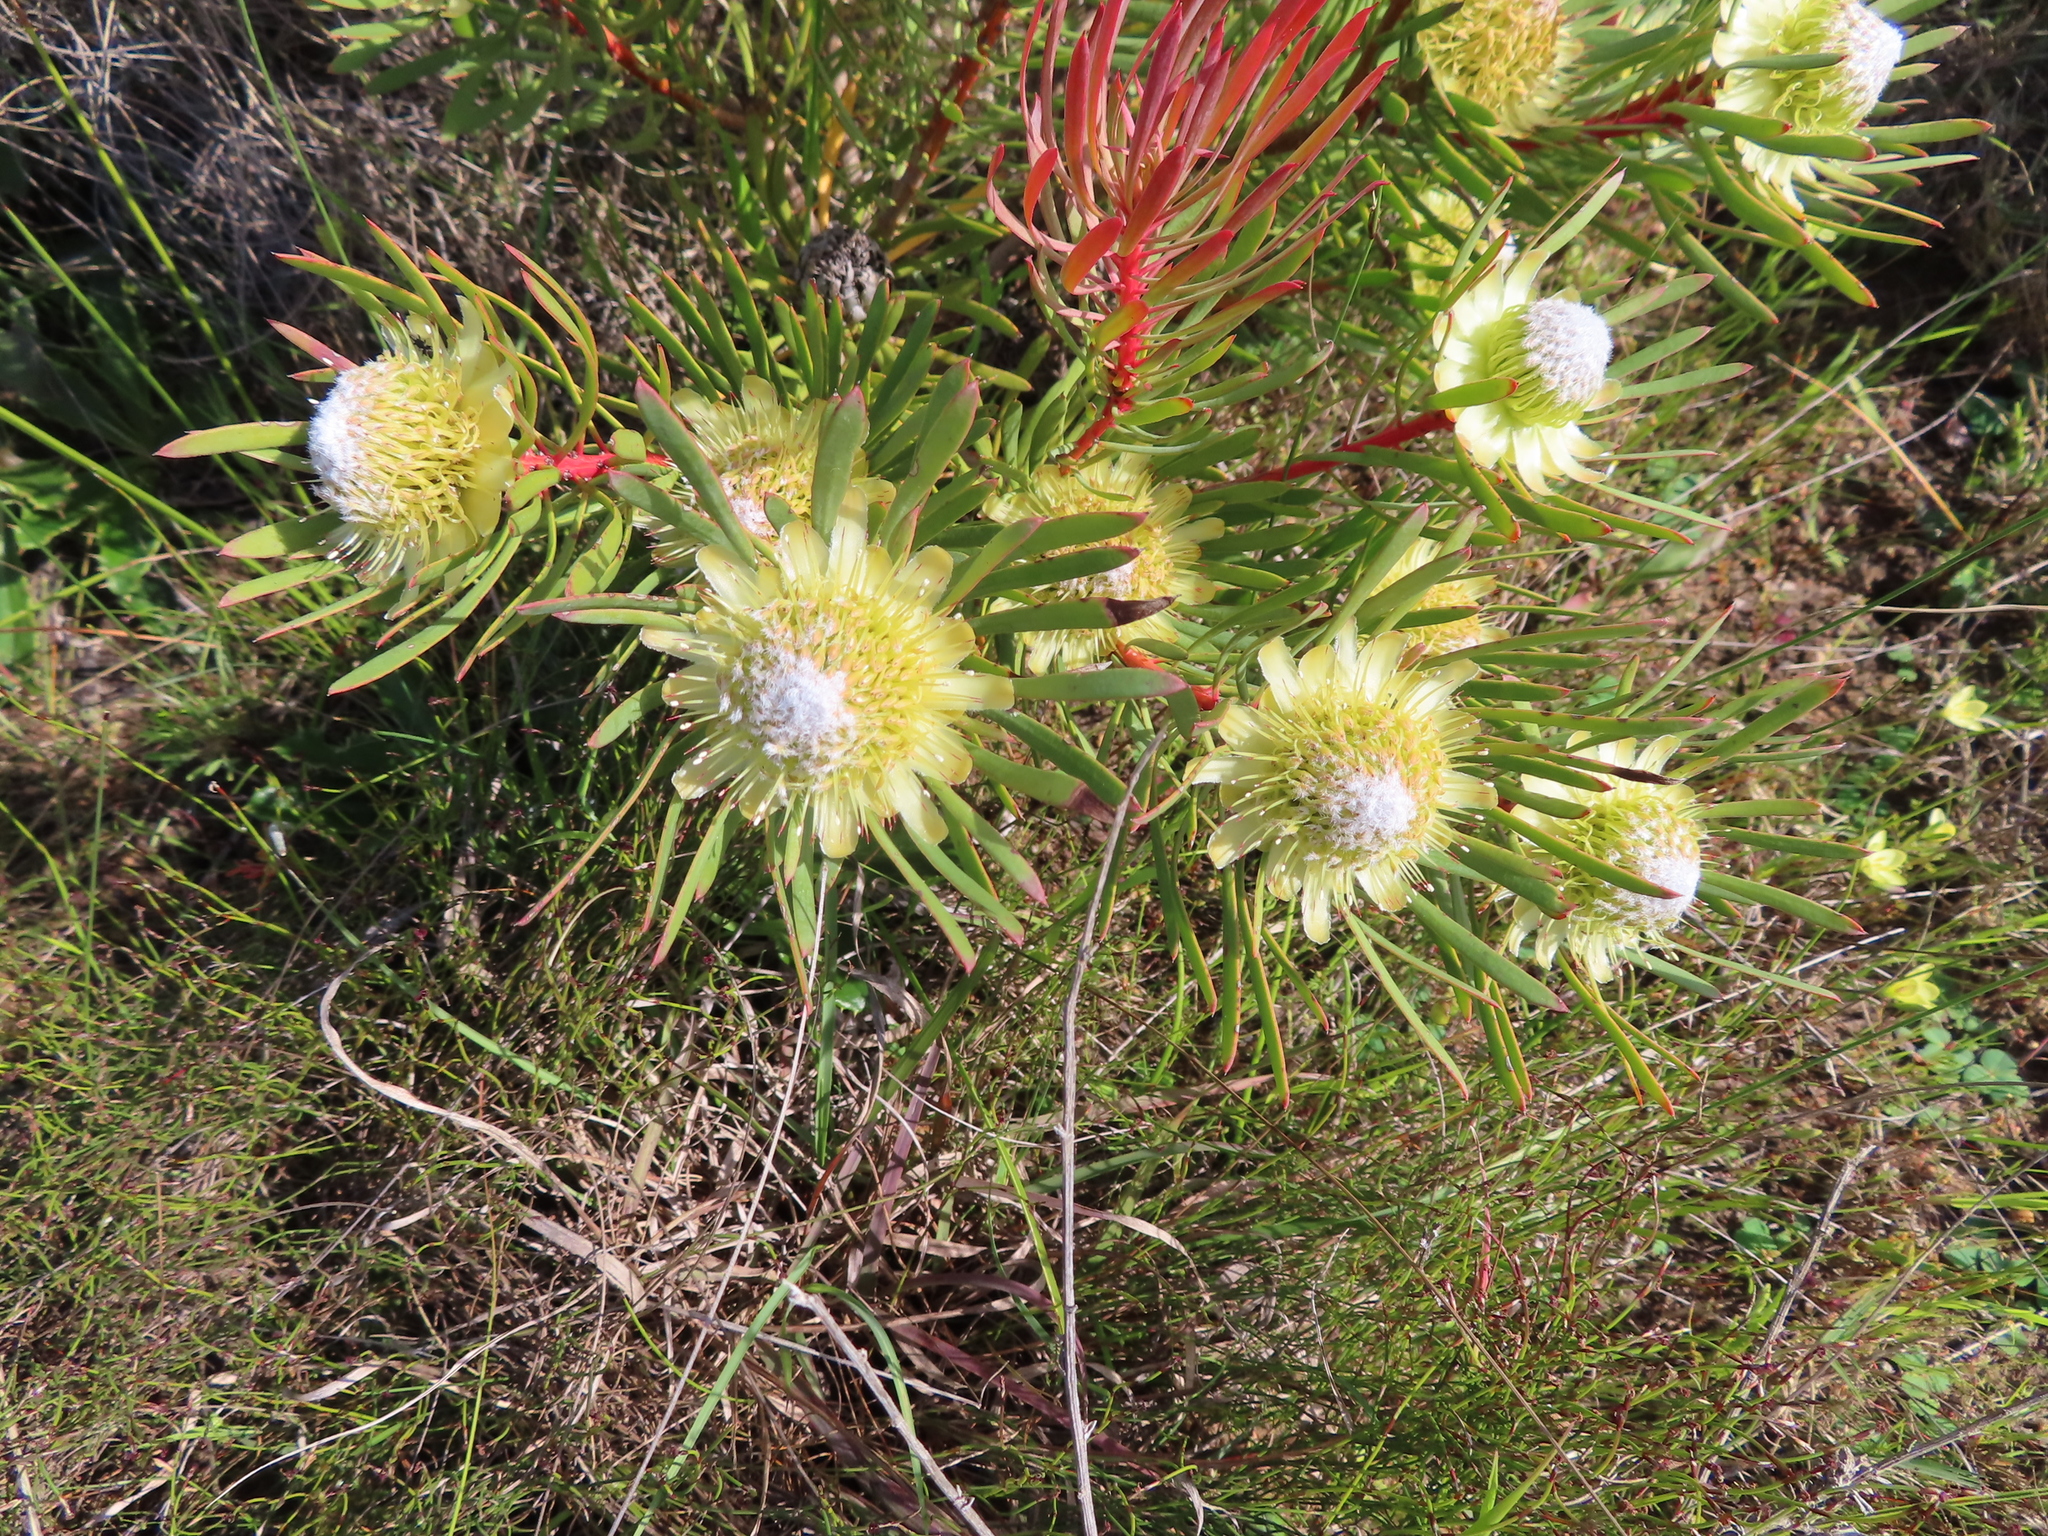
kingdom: Plantae
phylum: Tracheophyta
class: Magnoliopsida
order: Proteales
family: Proteaceae
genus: Protea
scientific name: Protea scolymocephala
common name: Thistle sugarbush
